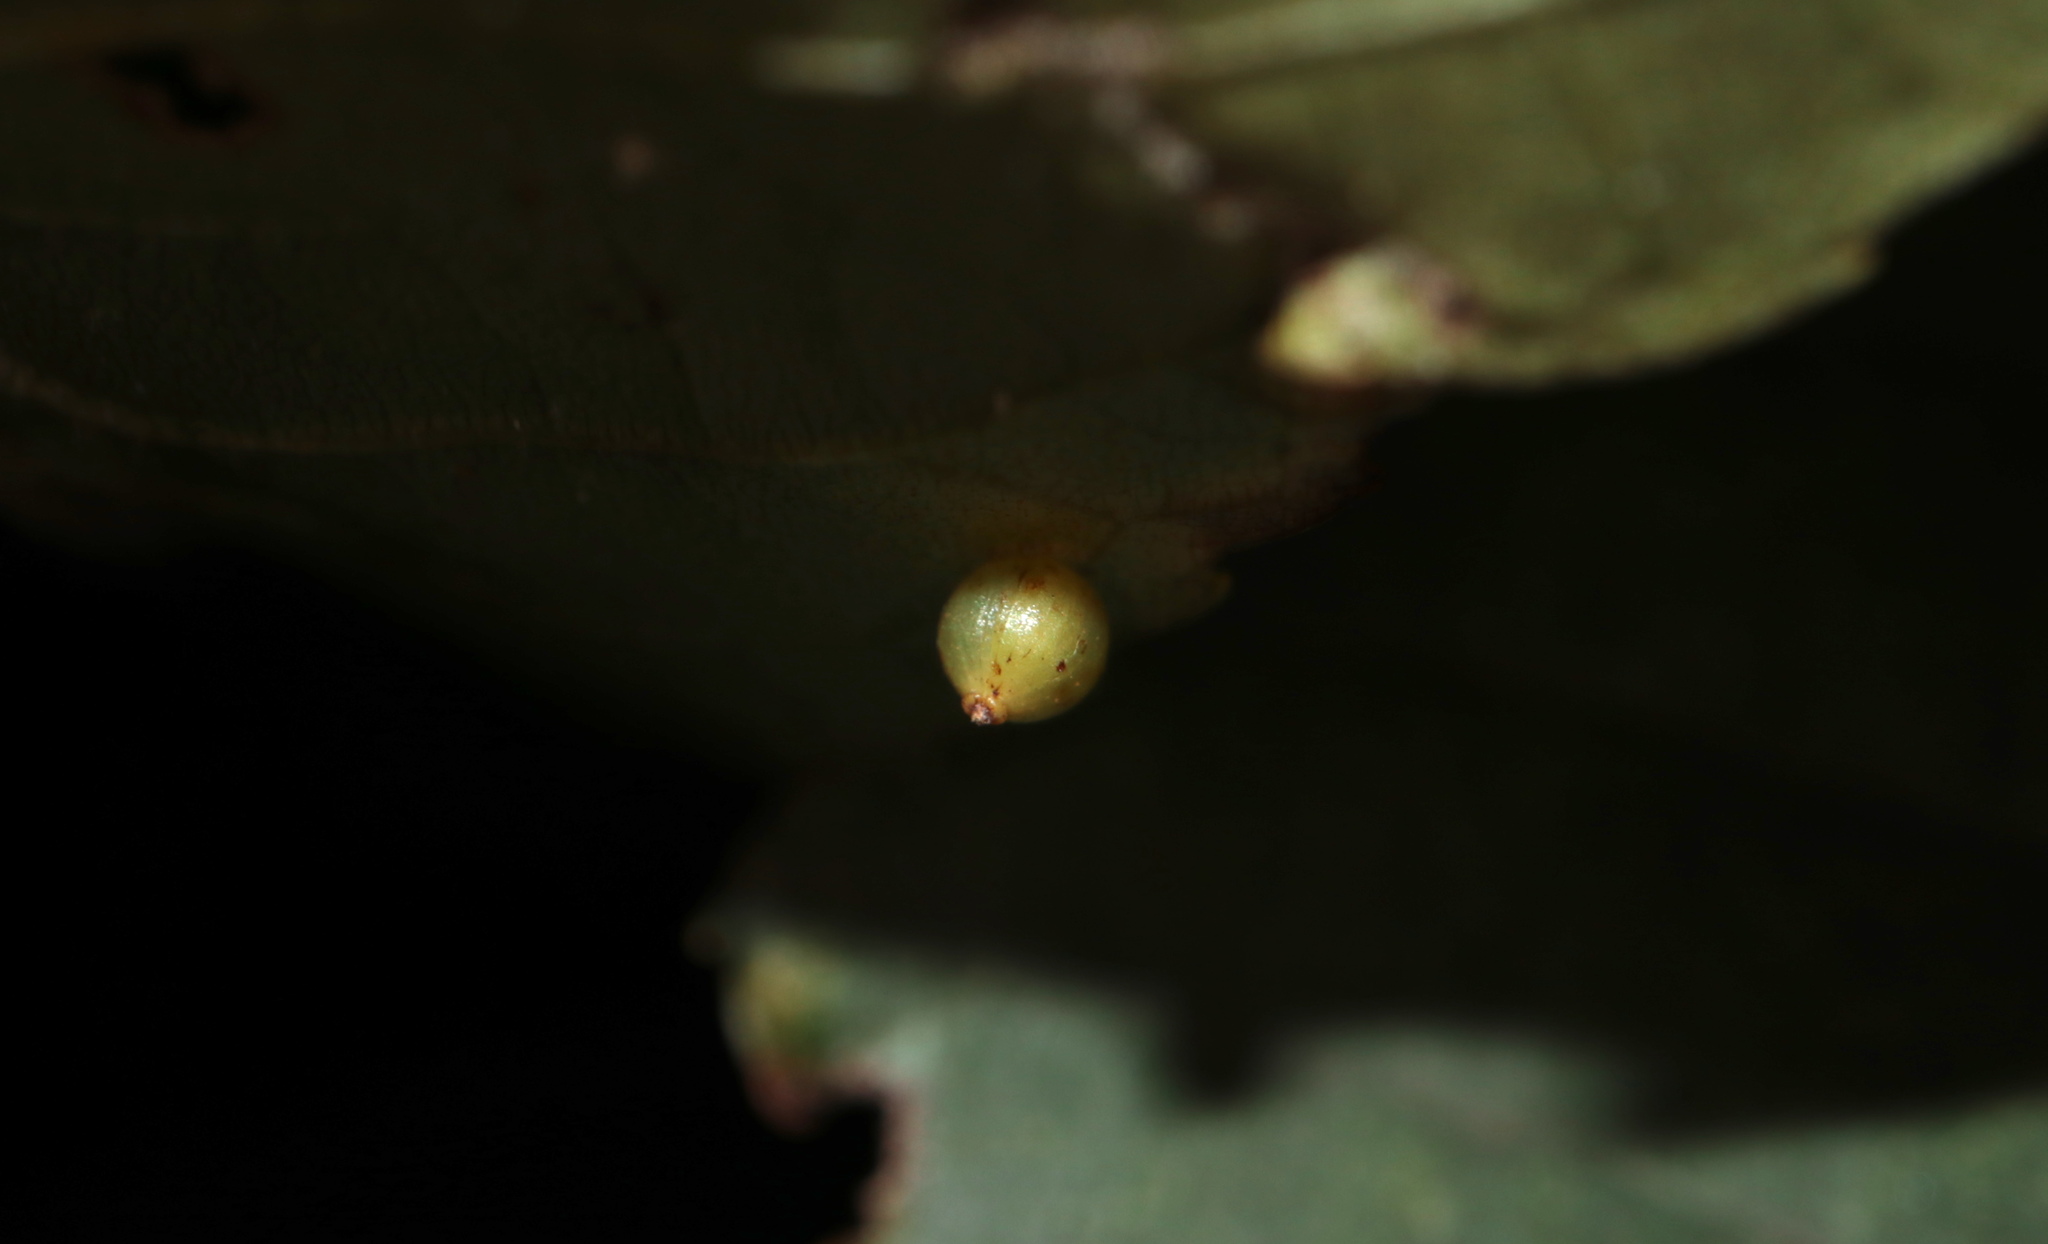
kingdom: Animalia
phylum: Arthropoda
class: Insecta
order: Diptera
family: Cecidomyiidae
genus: Caryomyia
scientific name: Caryomyia caryae
